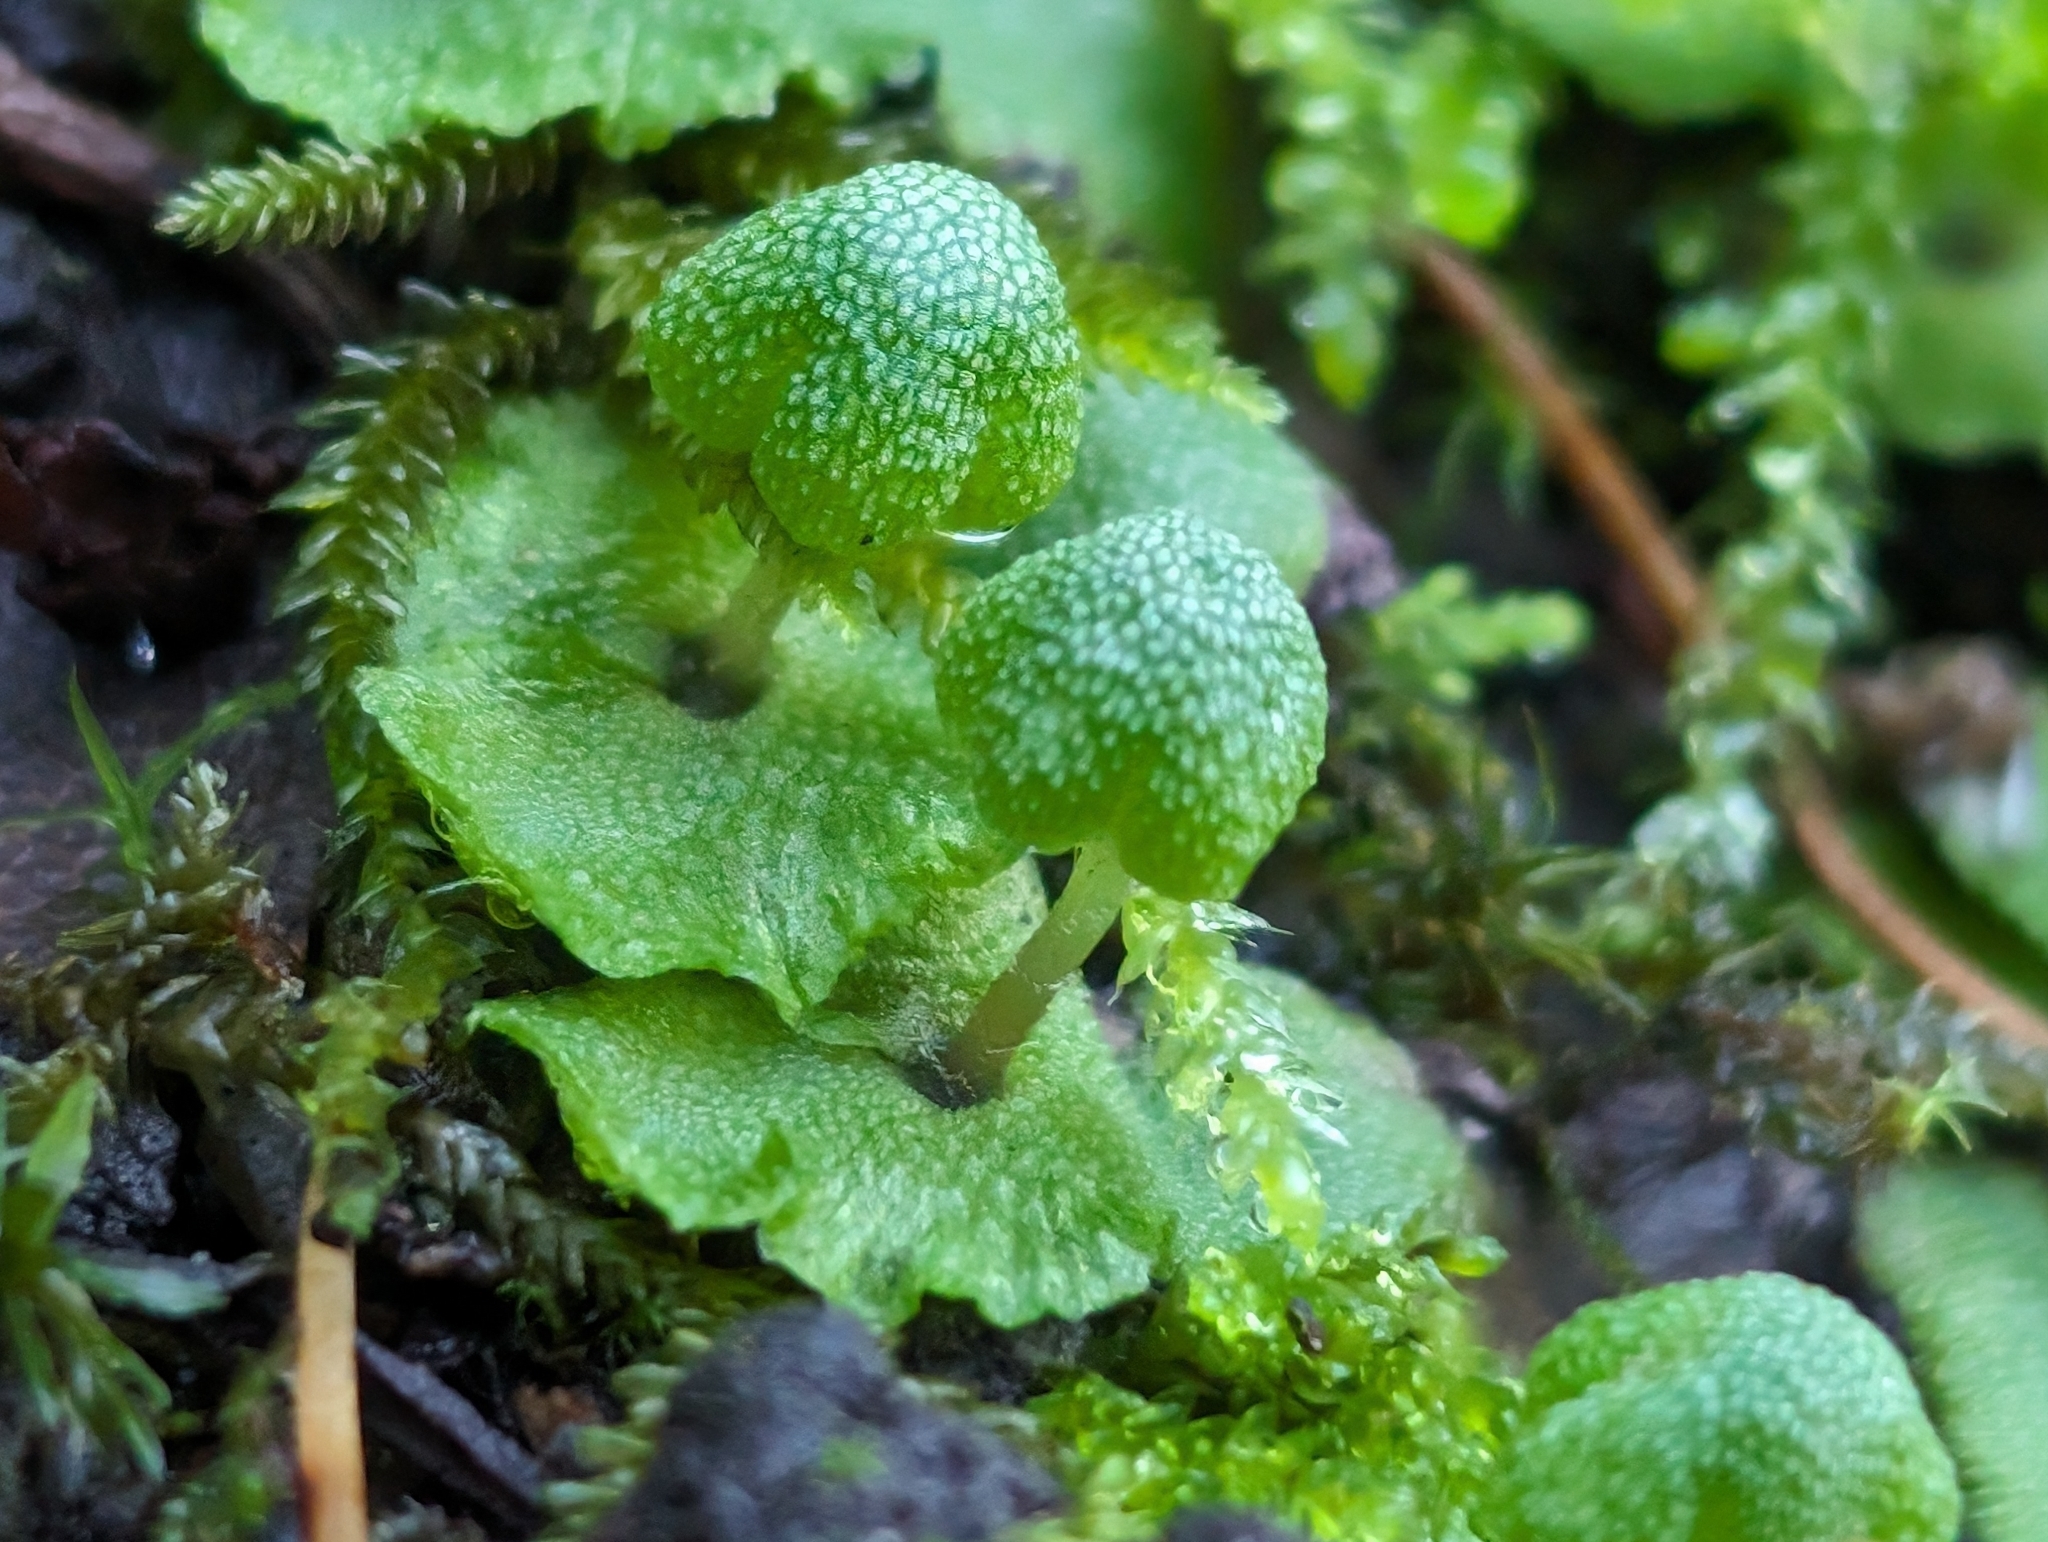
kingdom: Plantae
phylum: Marchantiophyta
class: Marchantiopsida
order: Marchantiales
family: Aytoniaceae
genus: Asterella
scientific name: Asterella californica
